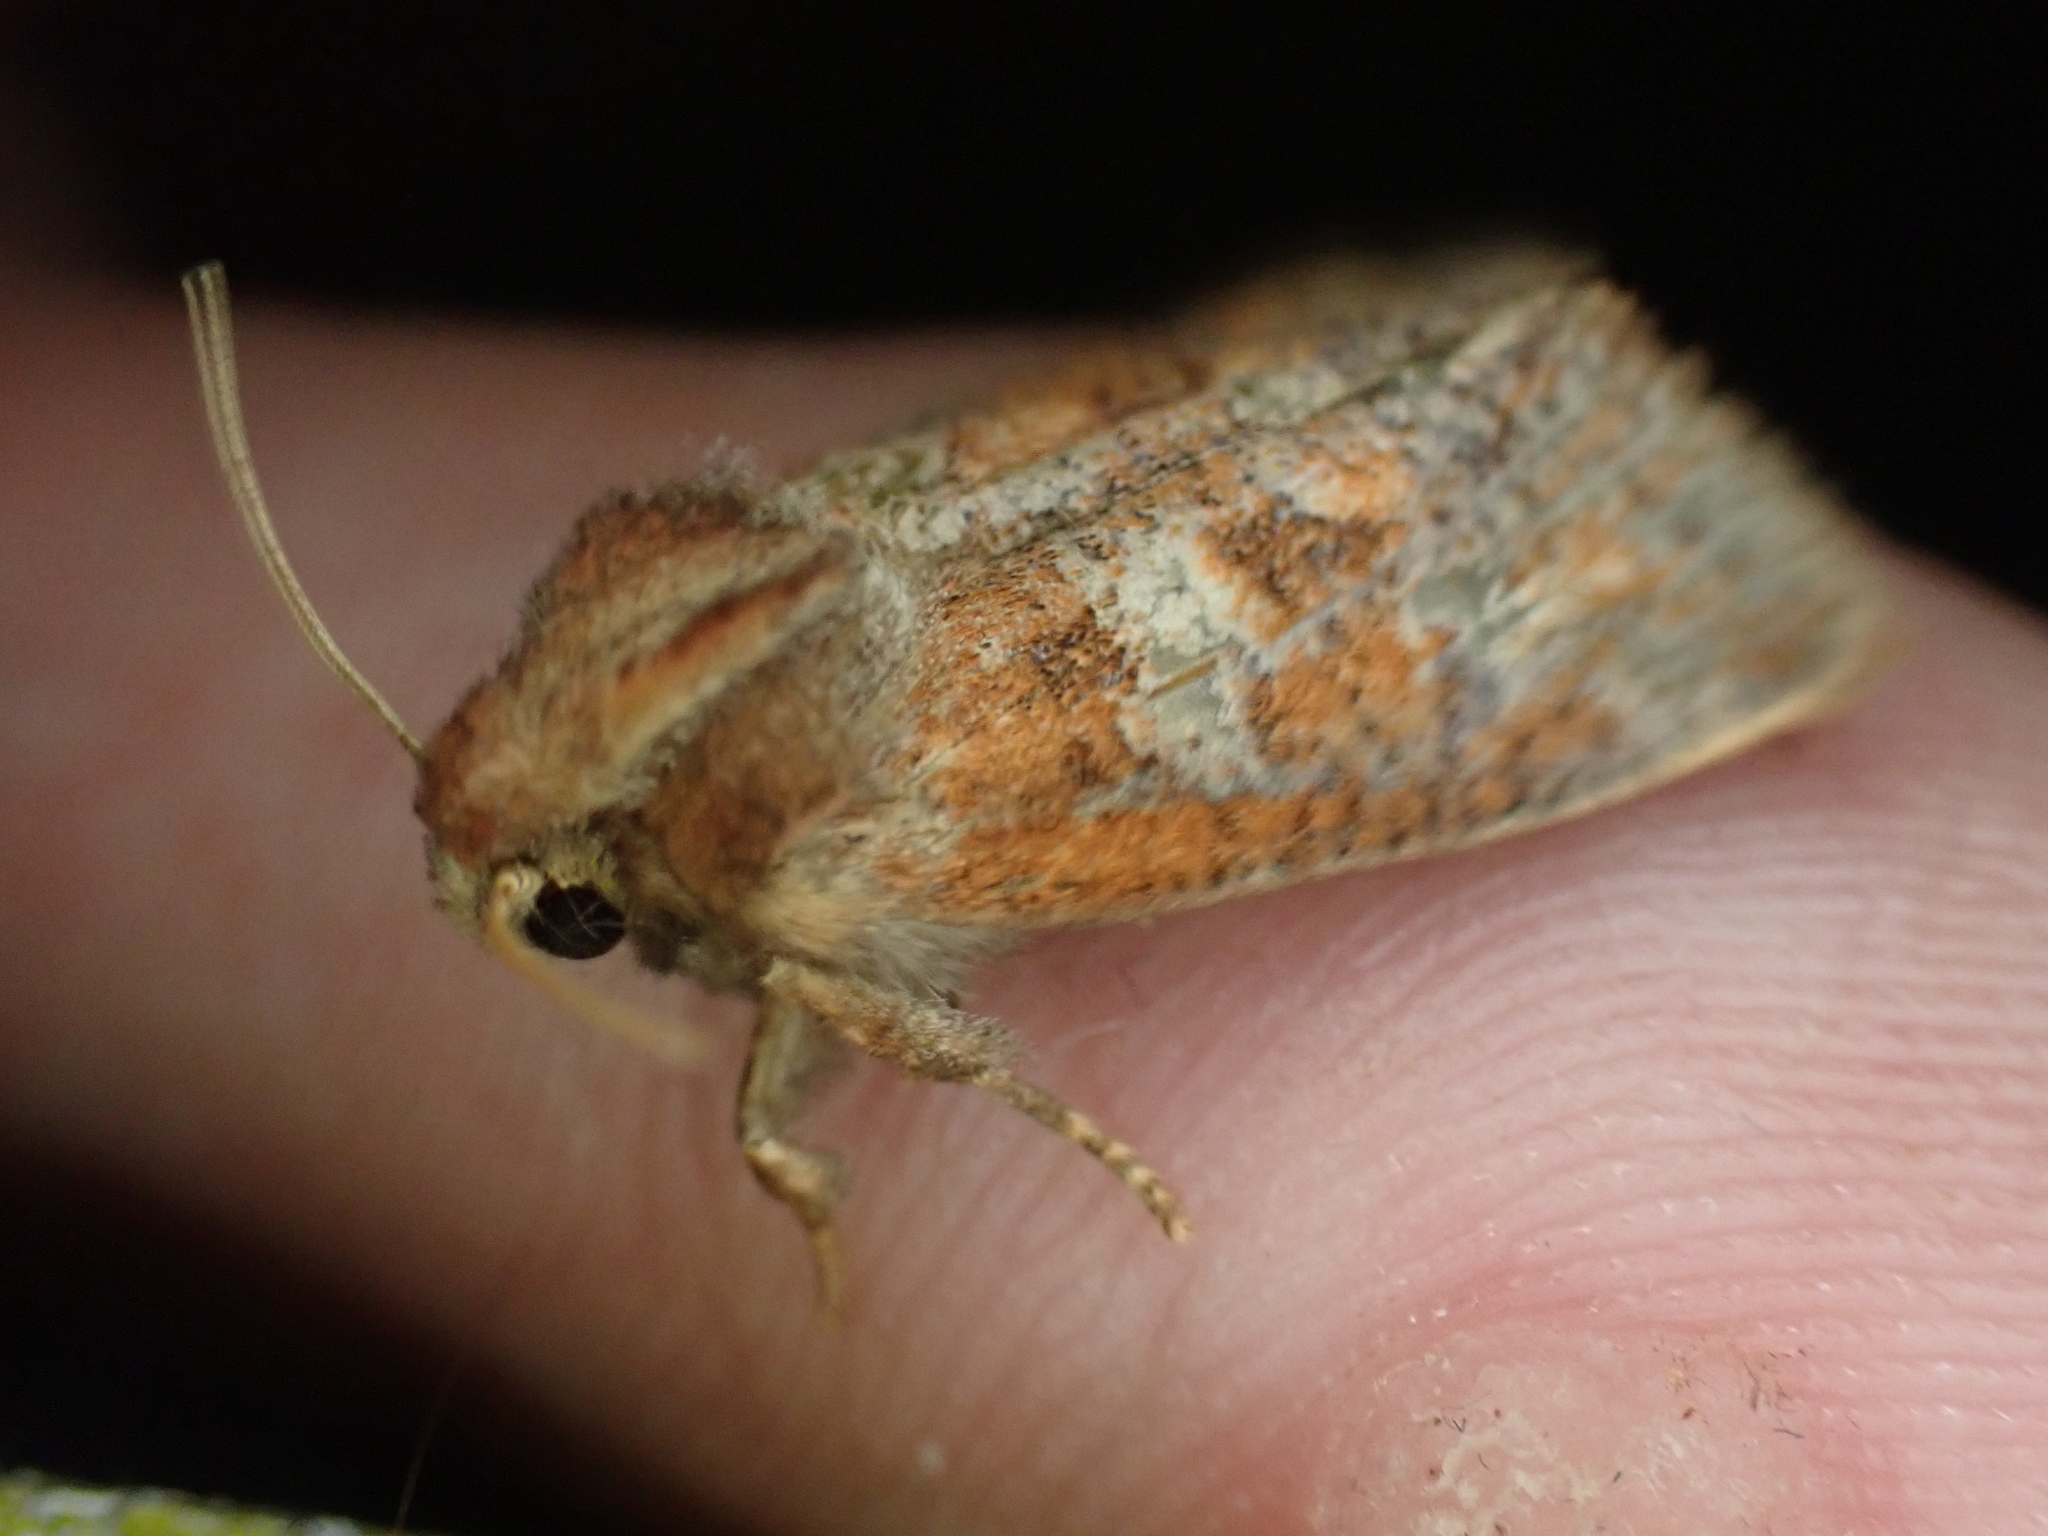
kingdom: Animalia
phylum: Arthropoda
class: Insecta
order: Lepidoptera
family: Tineidae
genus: Acrolophus
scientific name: Acrolophus plumifrontella
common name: Eastern grass tubeworm moth
